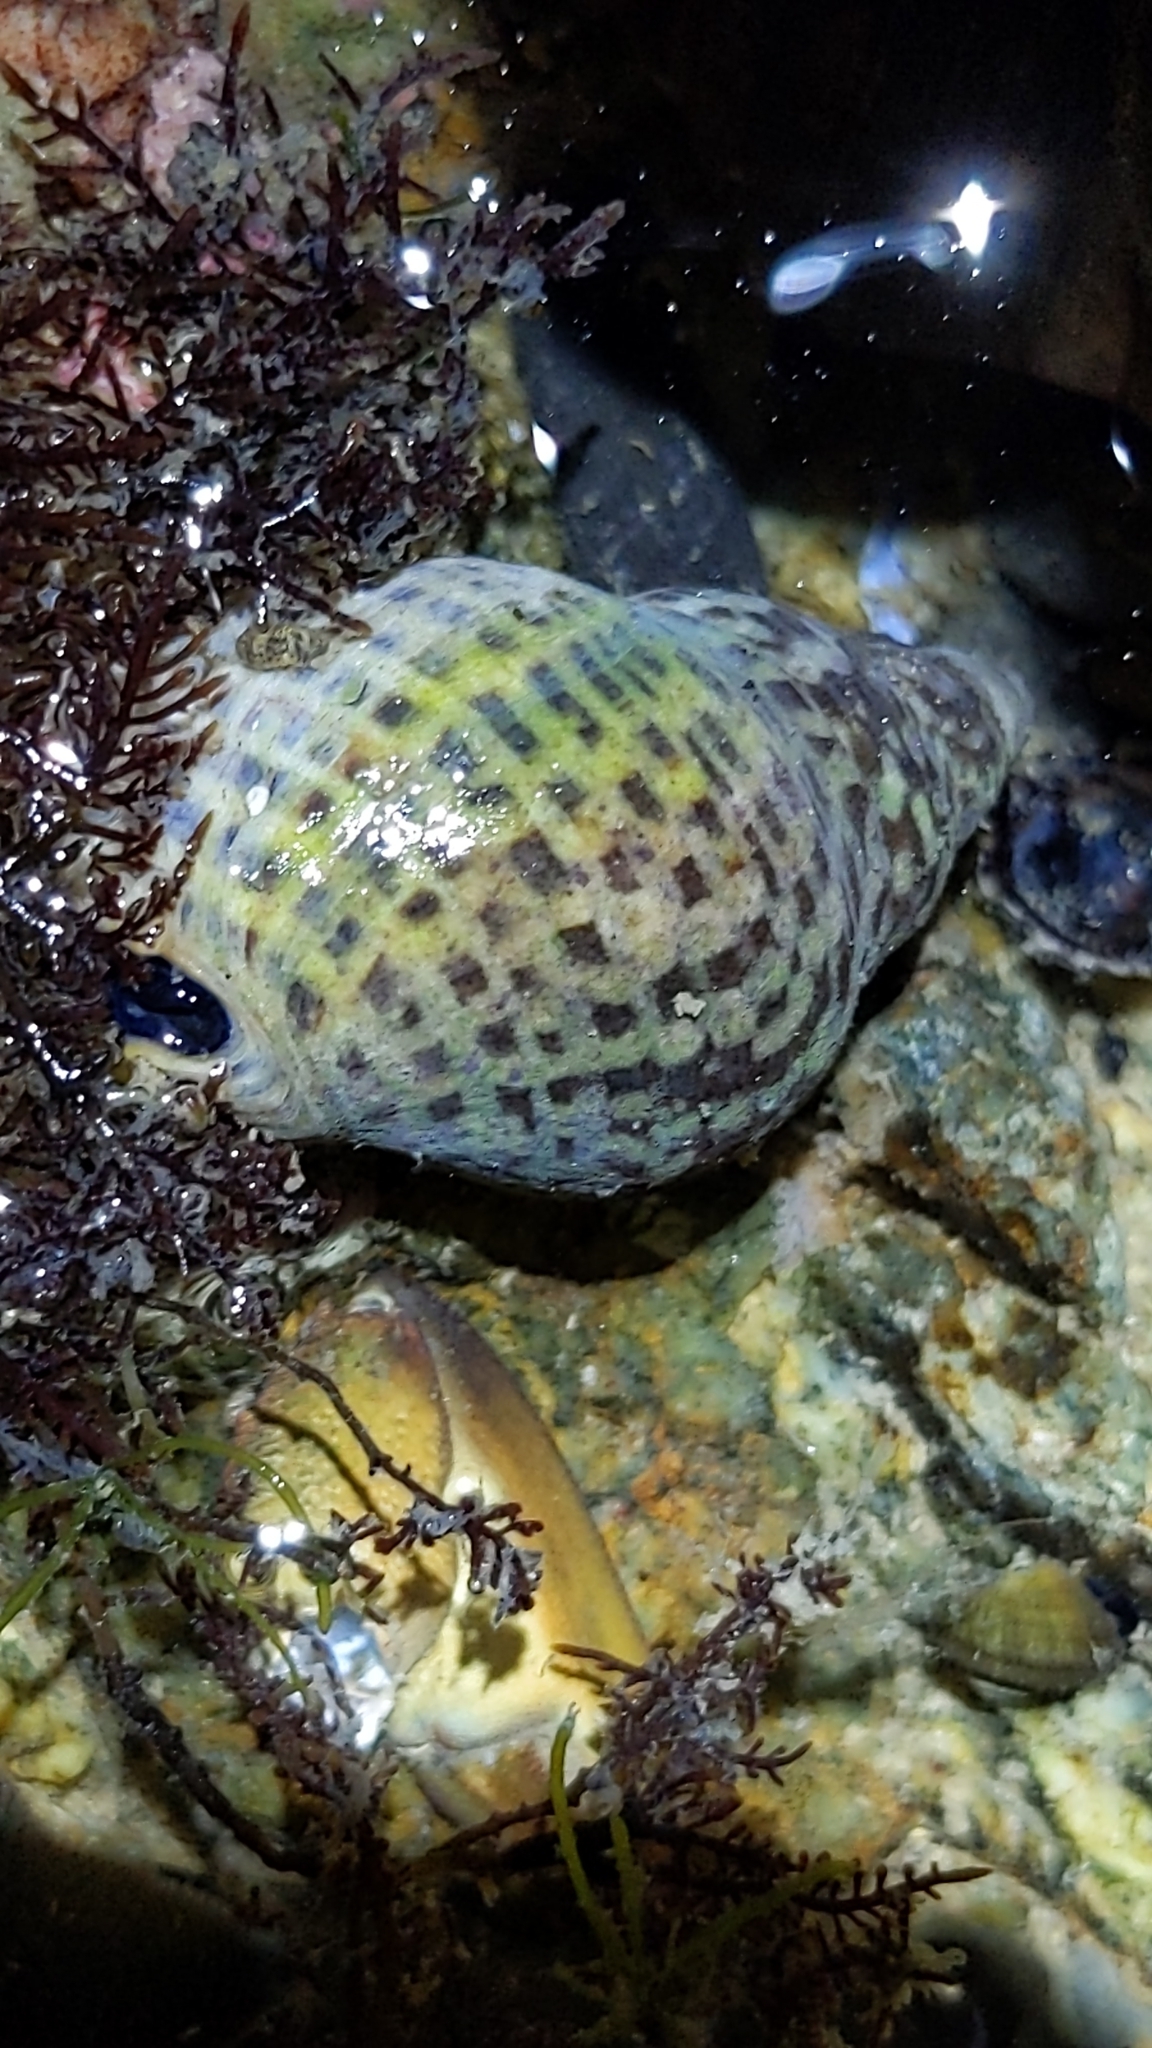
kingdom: Animalia
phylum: Mollusca
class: Gastropoda
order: Neogastropoda
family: Cominellidae
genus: Cominella
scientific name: Cominella maculosa
